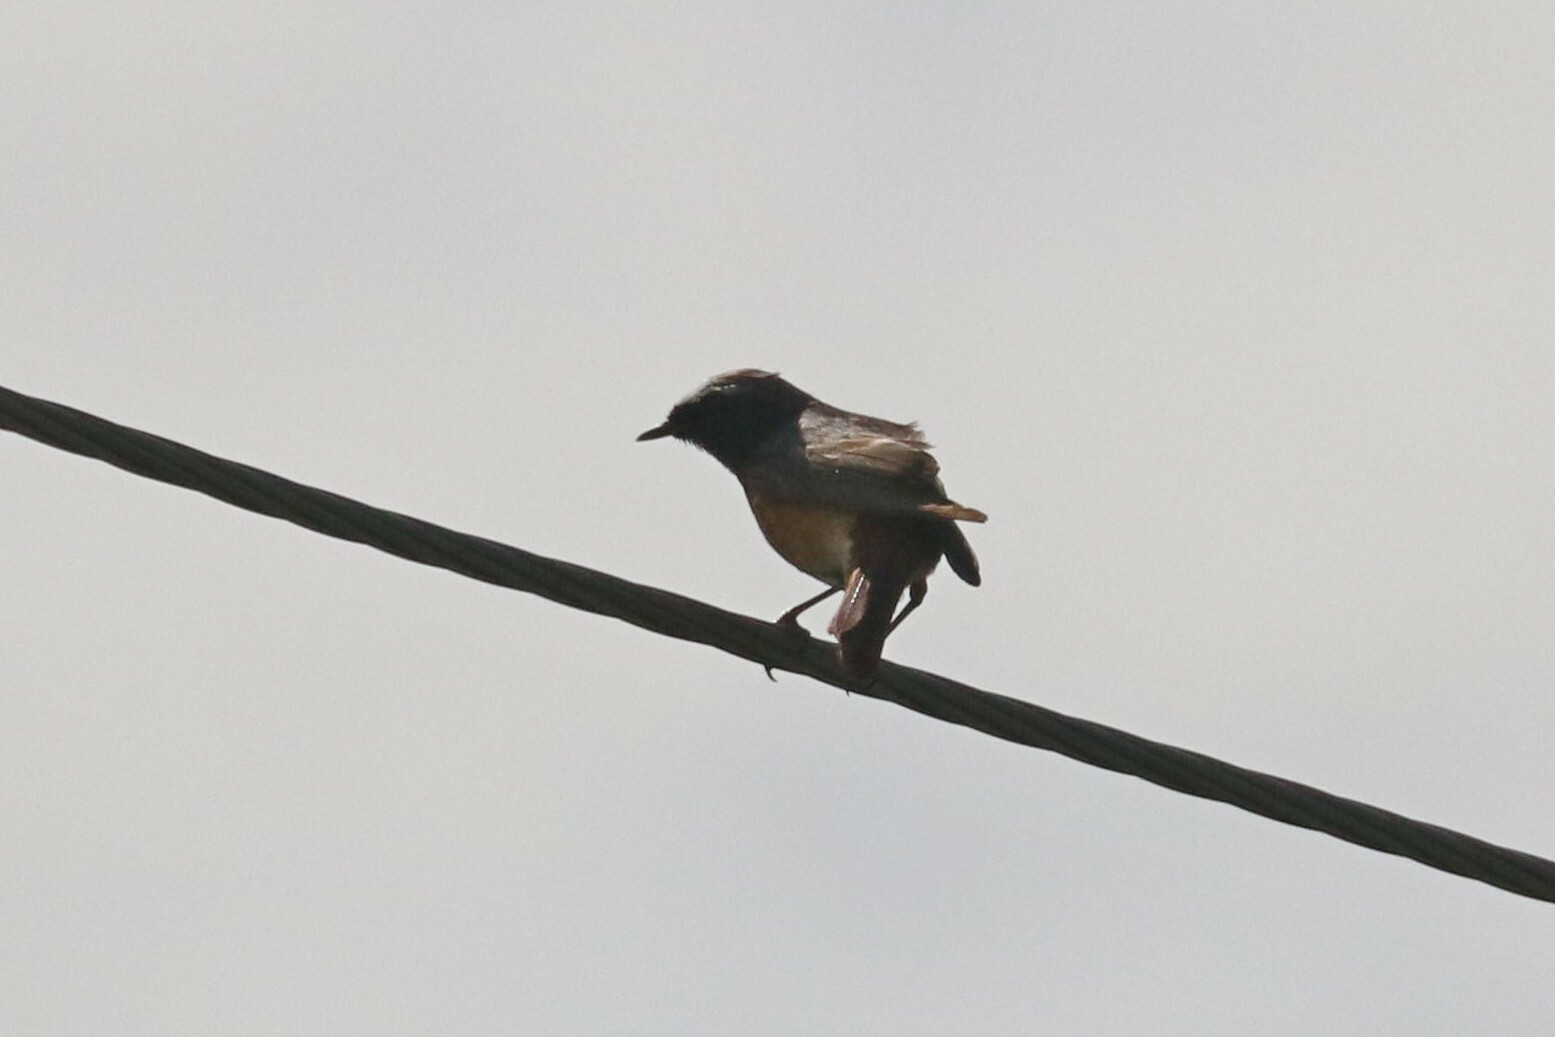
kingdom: Animalia
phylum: Chordata
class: Aves
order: Passeriformes
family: Muscicapidae
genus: Phoenicurus
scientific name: Phoenicurus phoenicurus
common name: Common redstart
